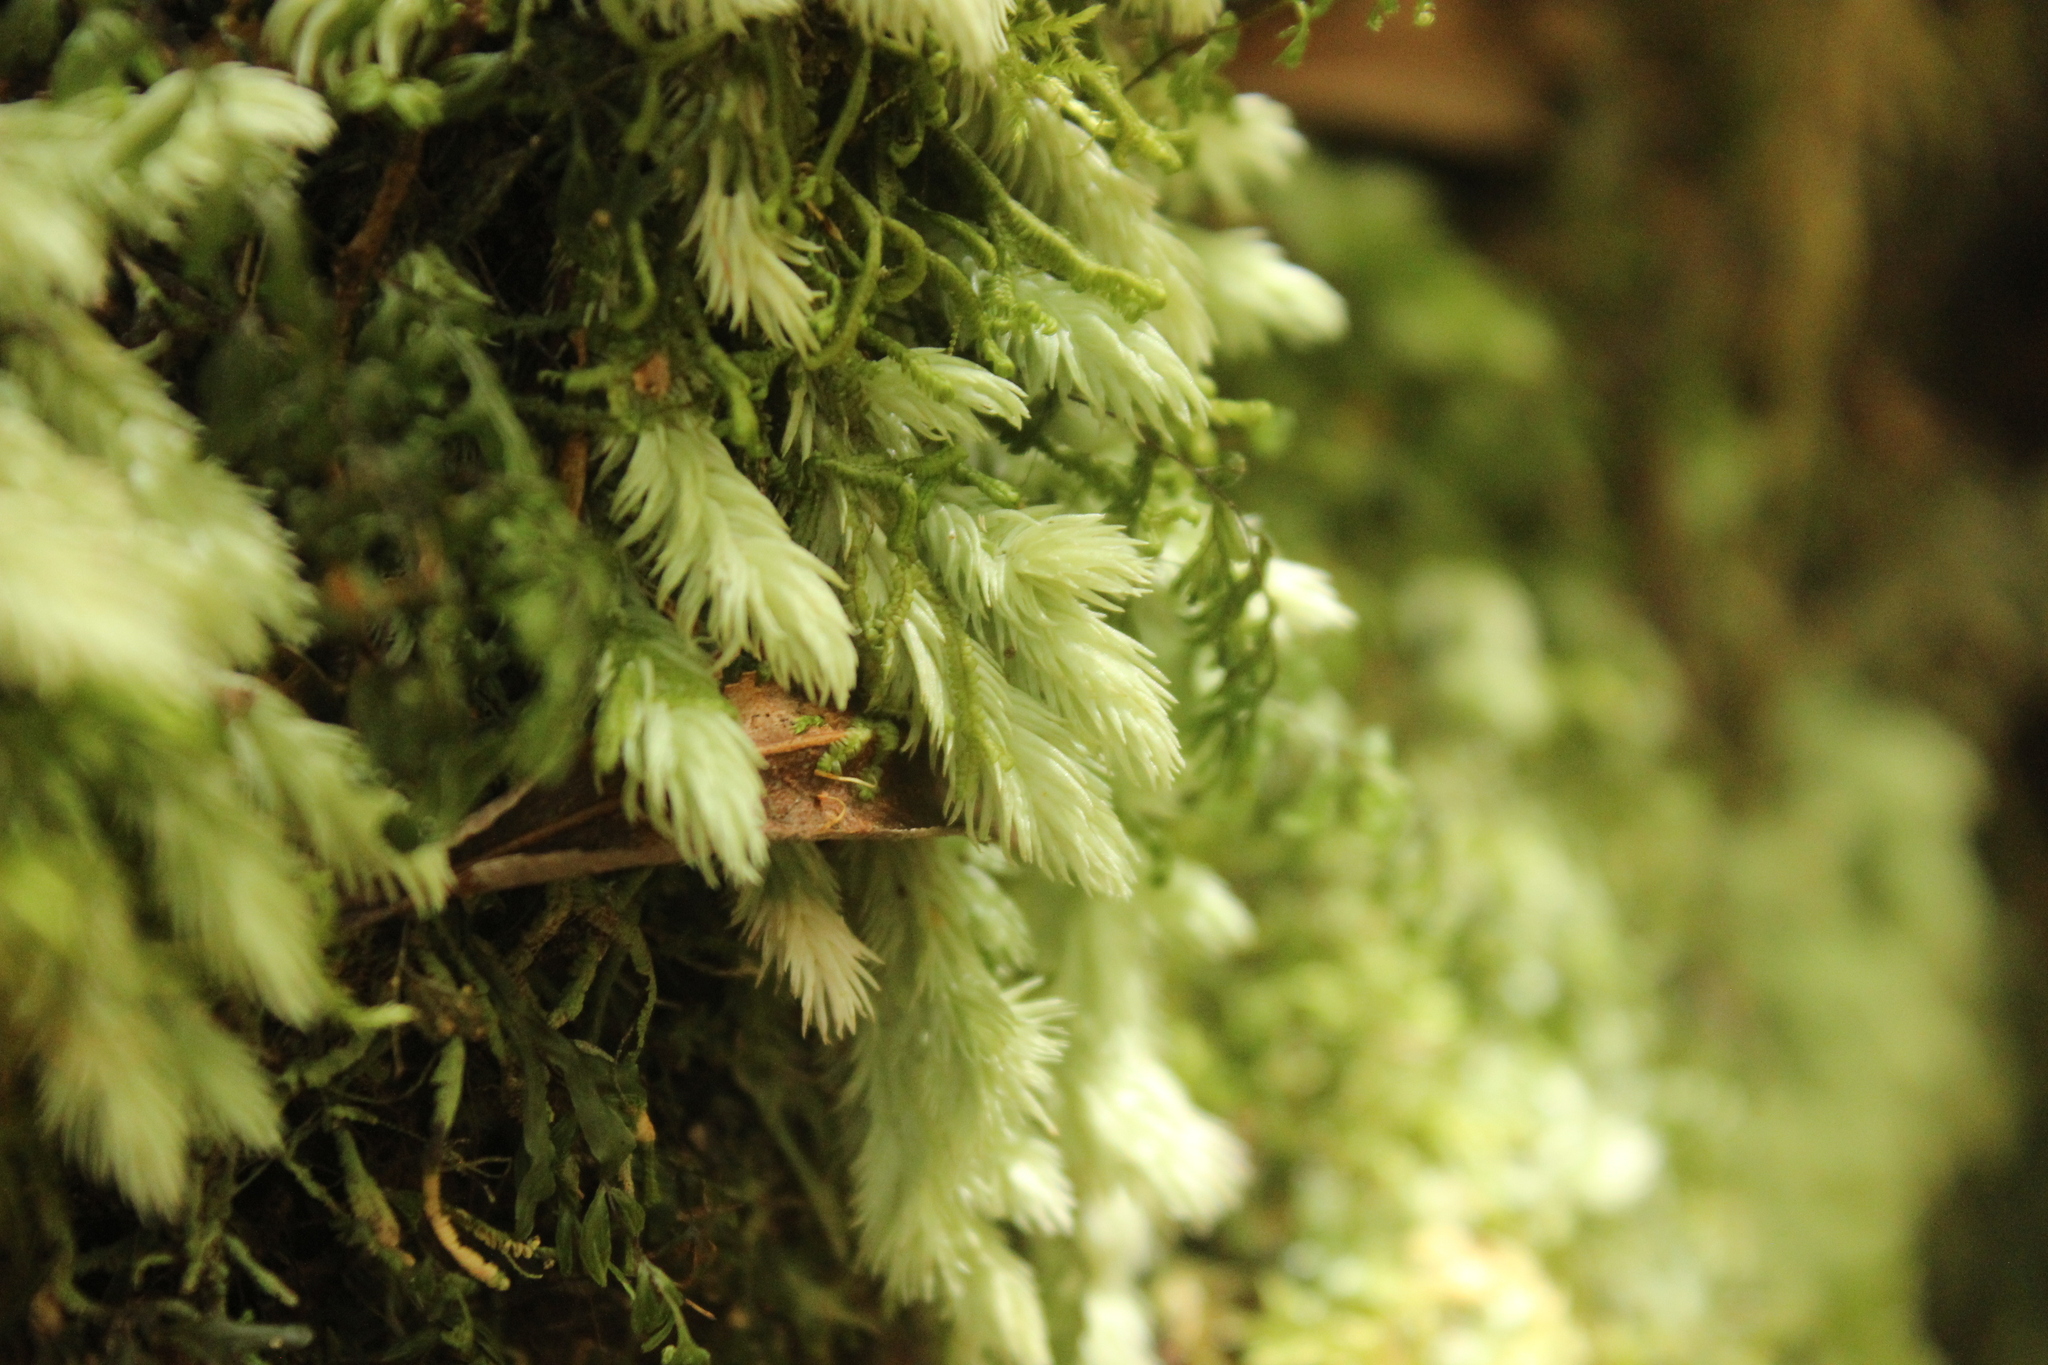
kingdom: Plantae
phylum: Bryophyta
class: Bryopsida
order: Dicranales
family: Leucobryaceae
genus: Leucobryum
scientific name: Leucobryum javense
